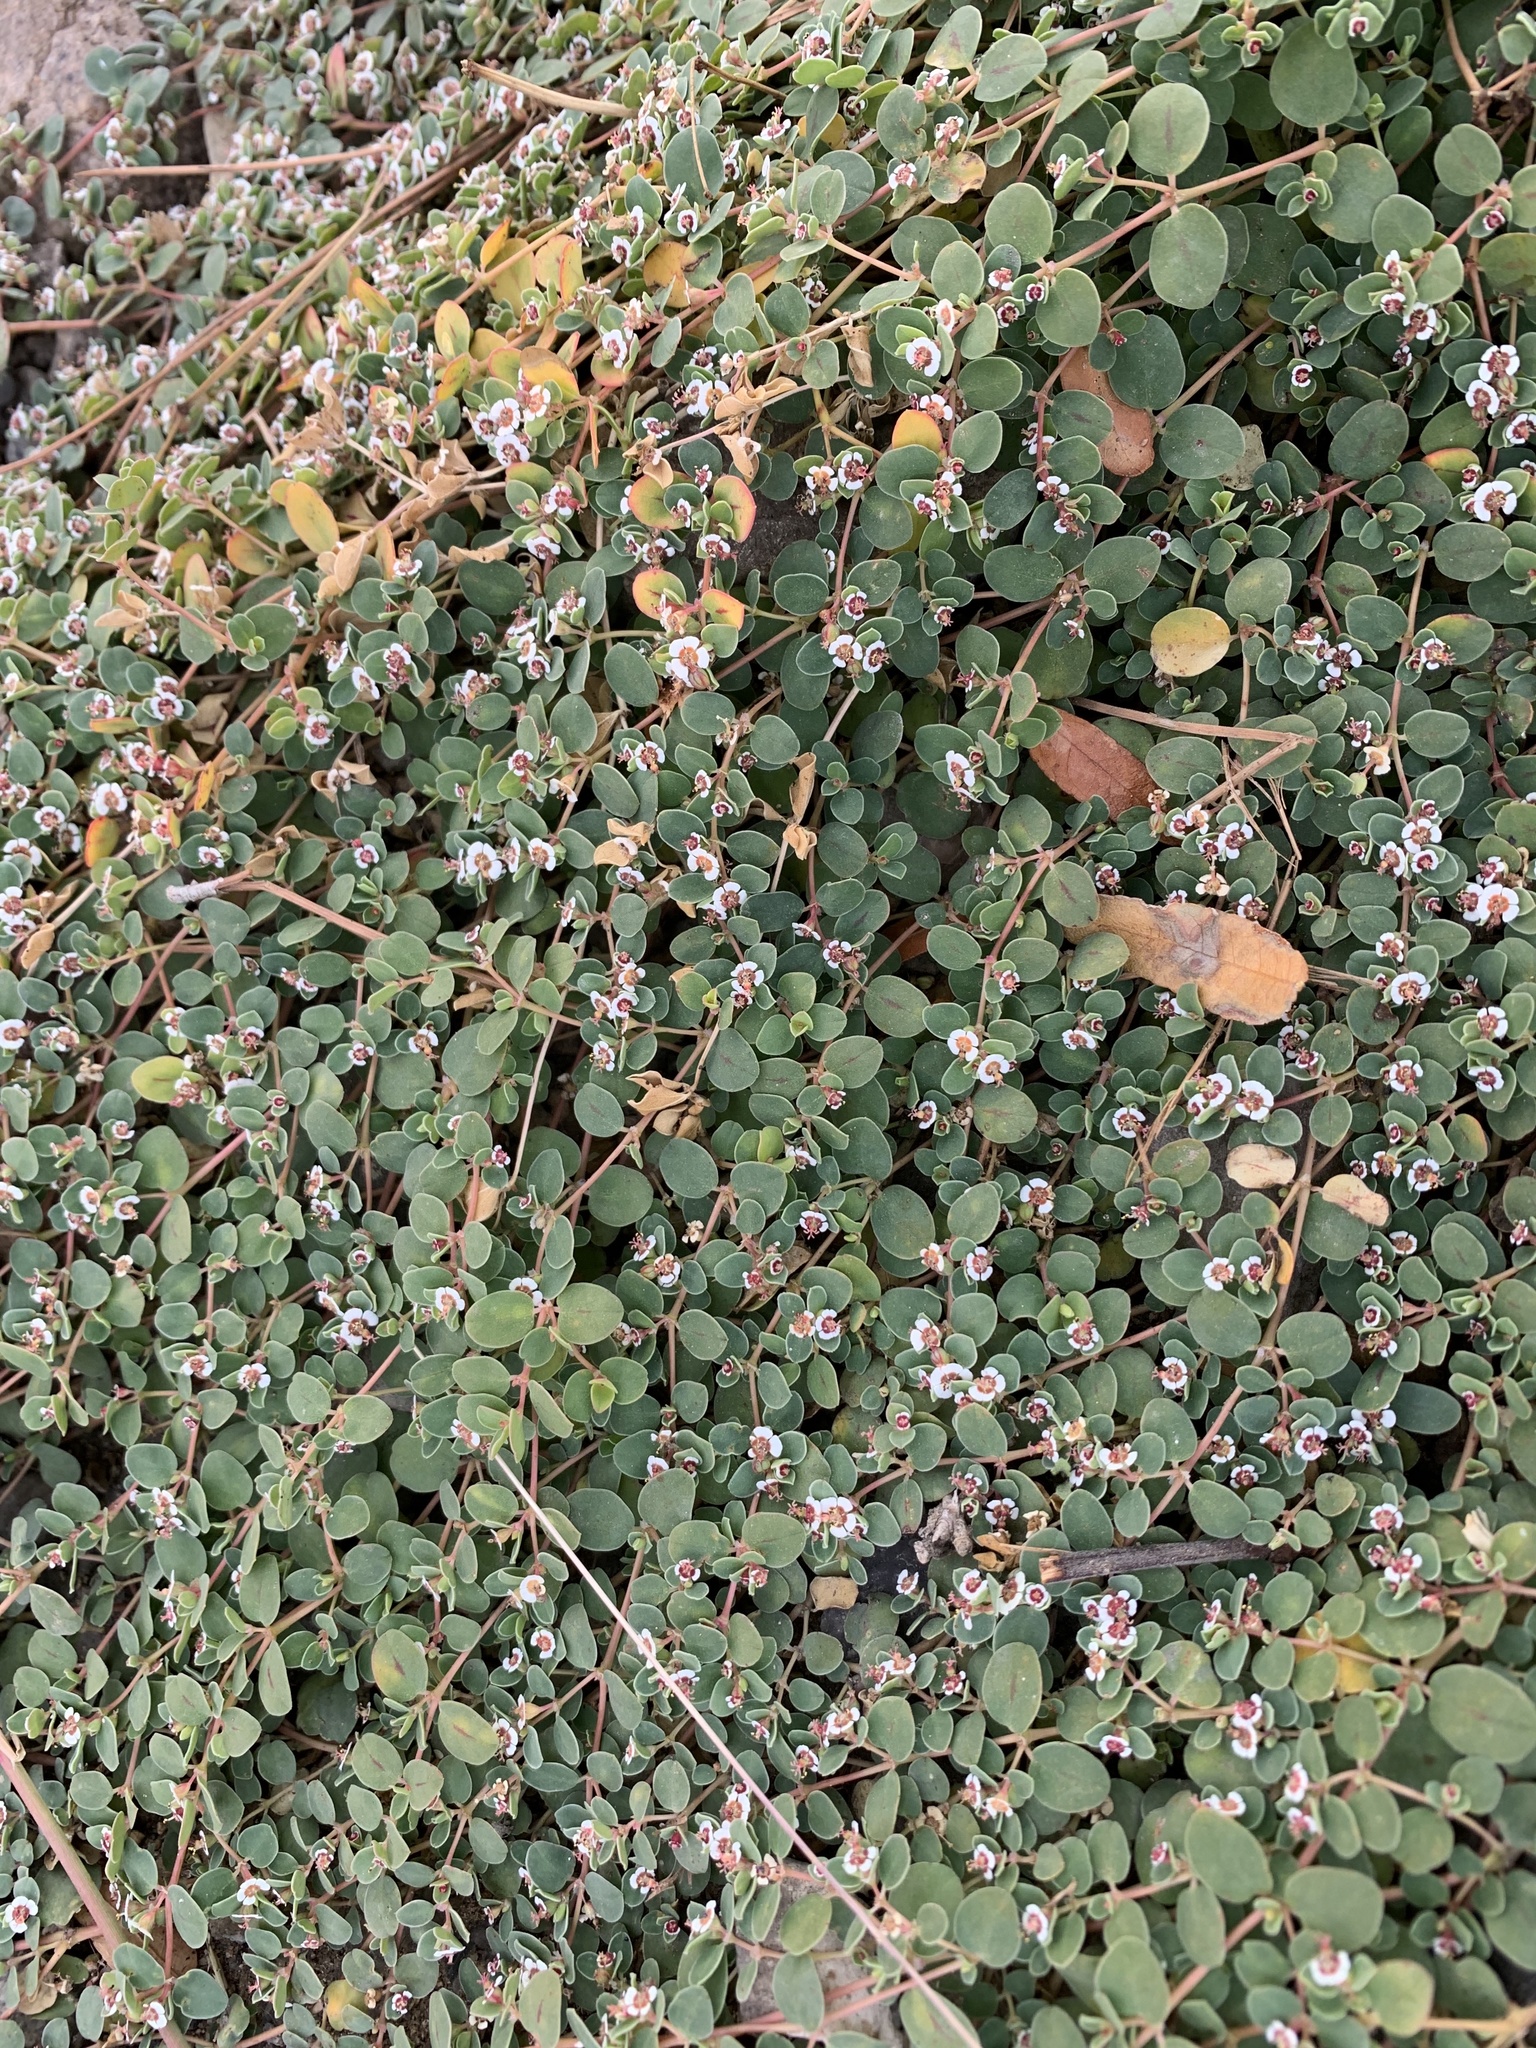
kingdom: Plantae
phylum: Tracheophyta
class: Magnoliopsida
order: Malpighiales
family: Euphorbiaceae
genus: Euphorbia
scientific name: Euphorbia albomarginata
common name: Whitemargin sandmat
